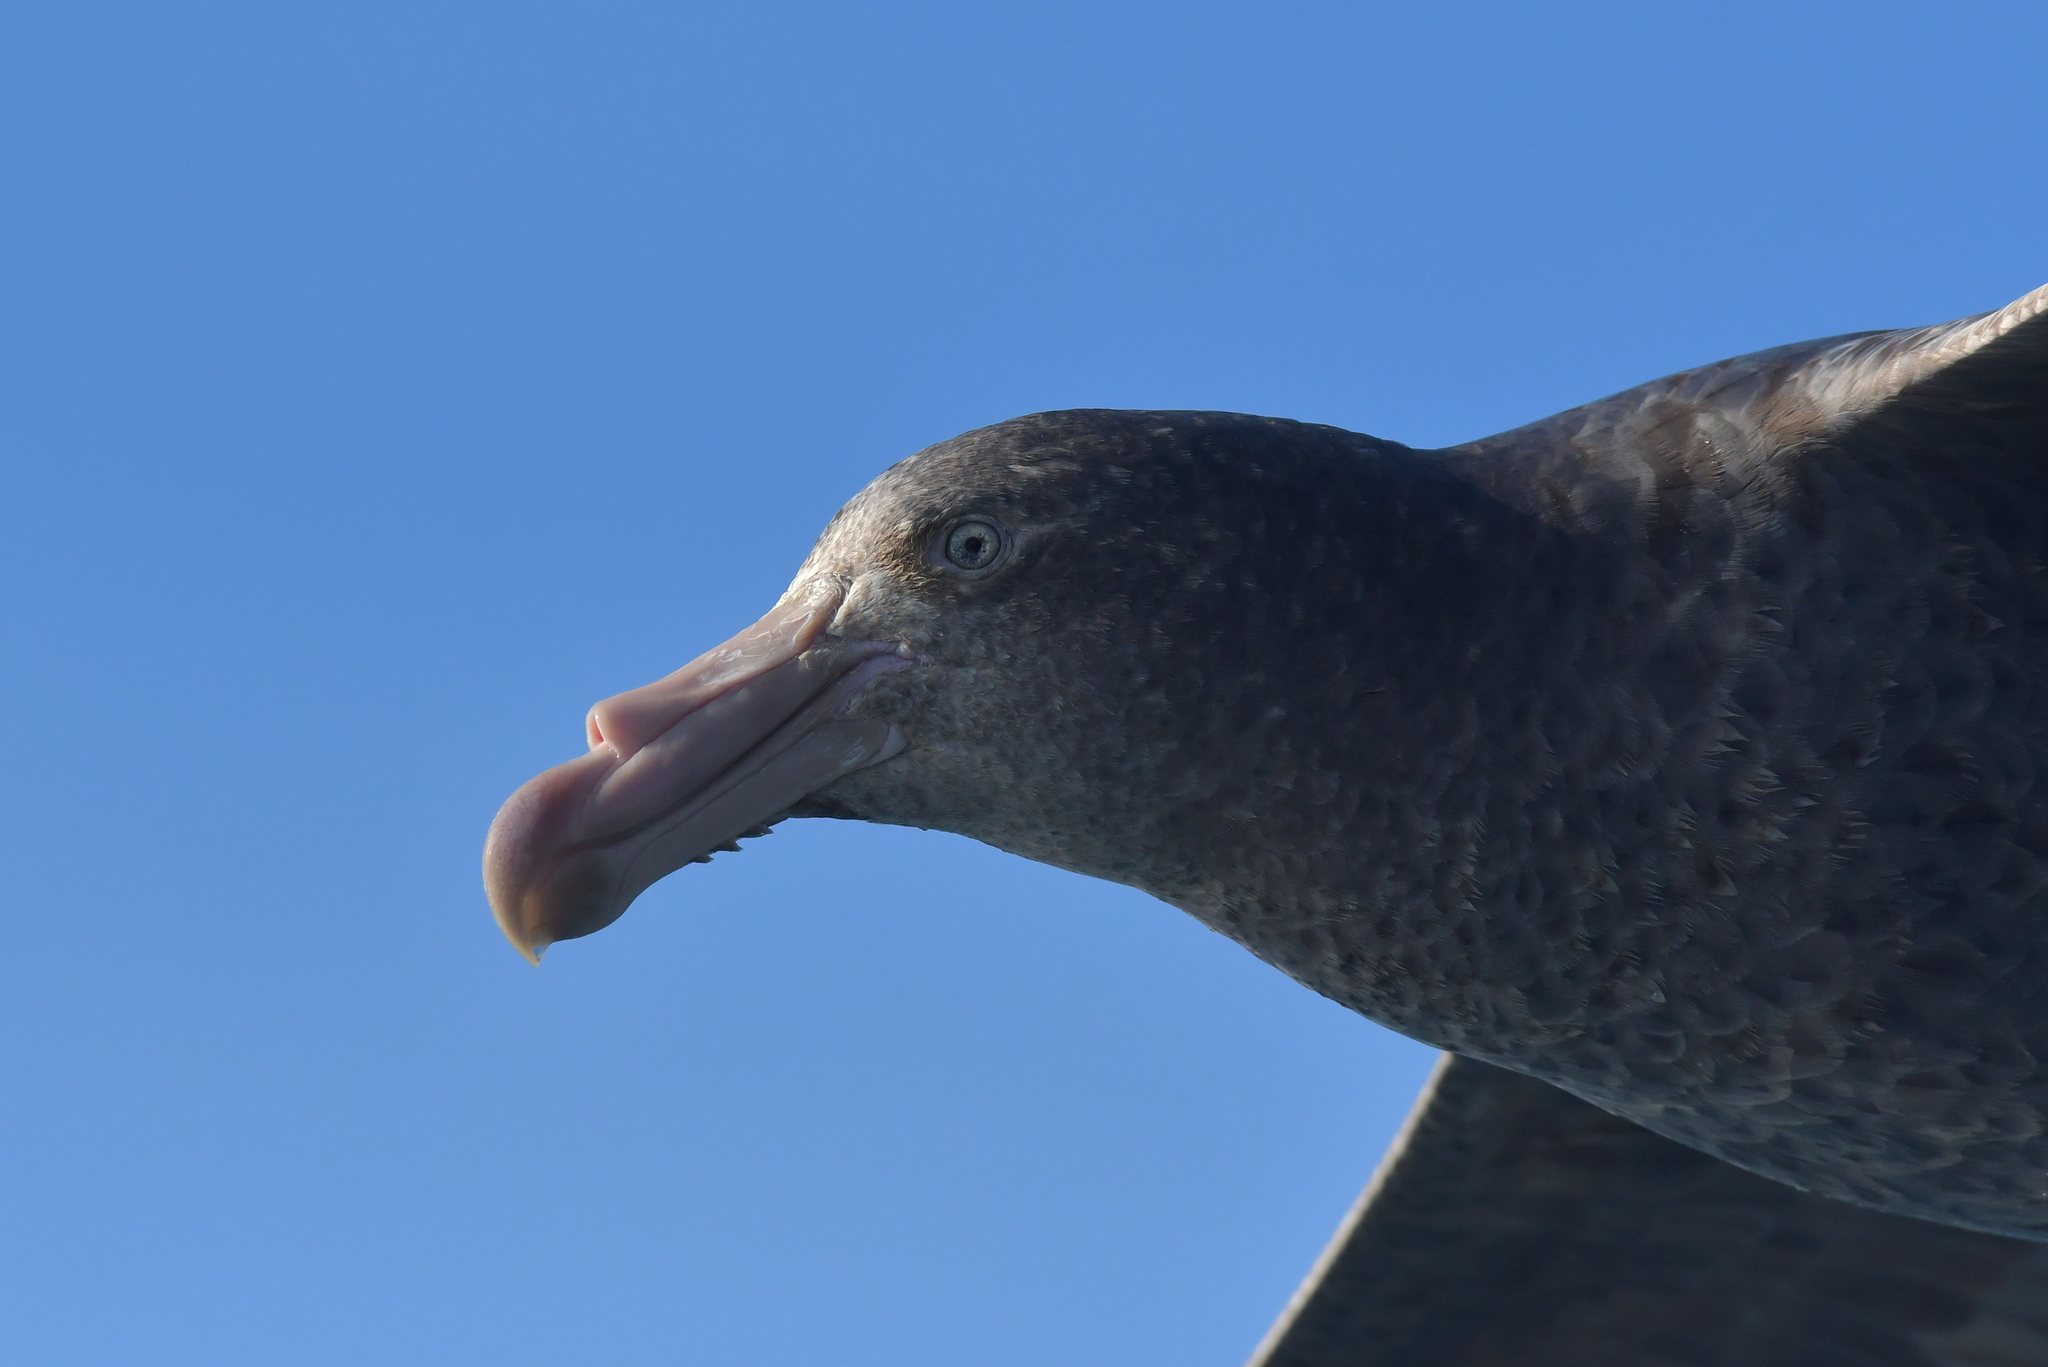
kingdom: Animalia
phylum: Chordata
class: Aves
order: Procellariiformes
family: Procellariidae
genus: Macronectes
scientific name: Macronectes halli
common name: Northern giant petrel
